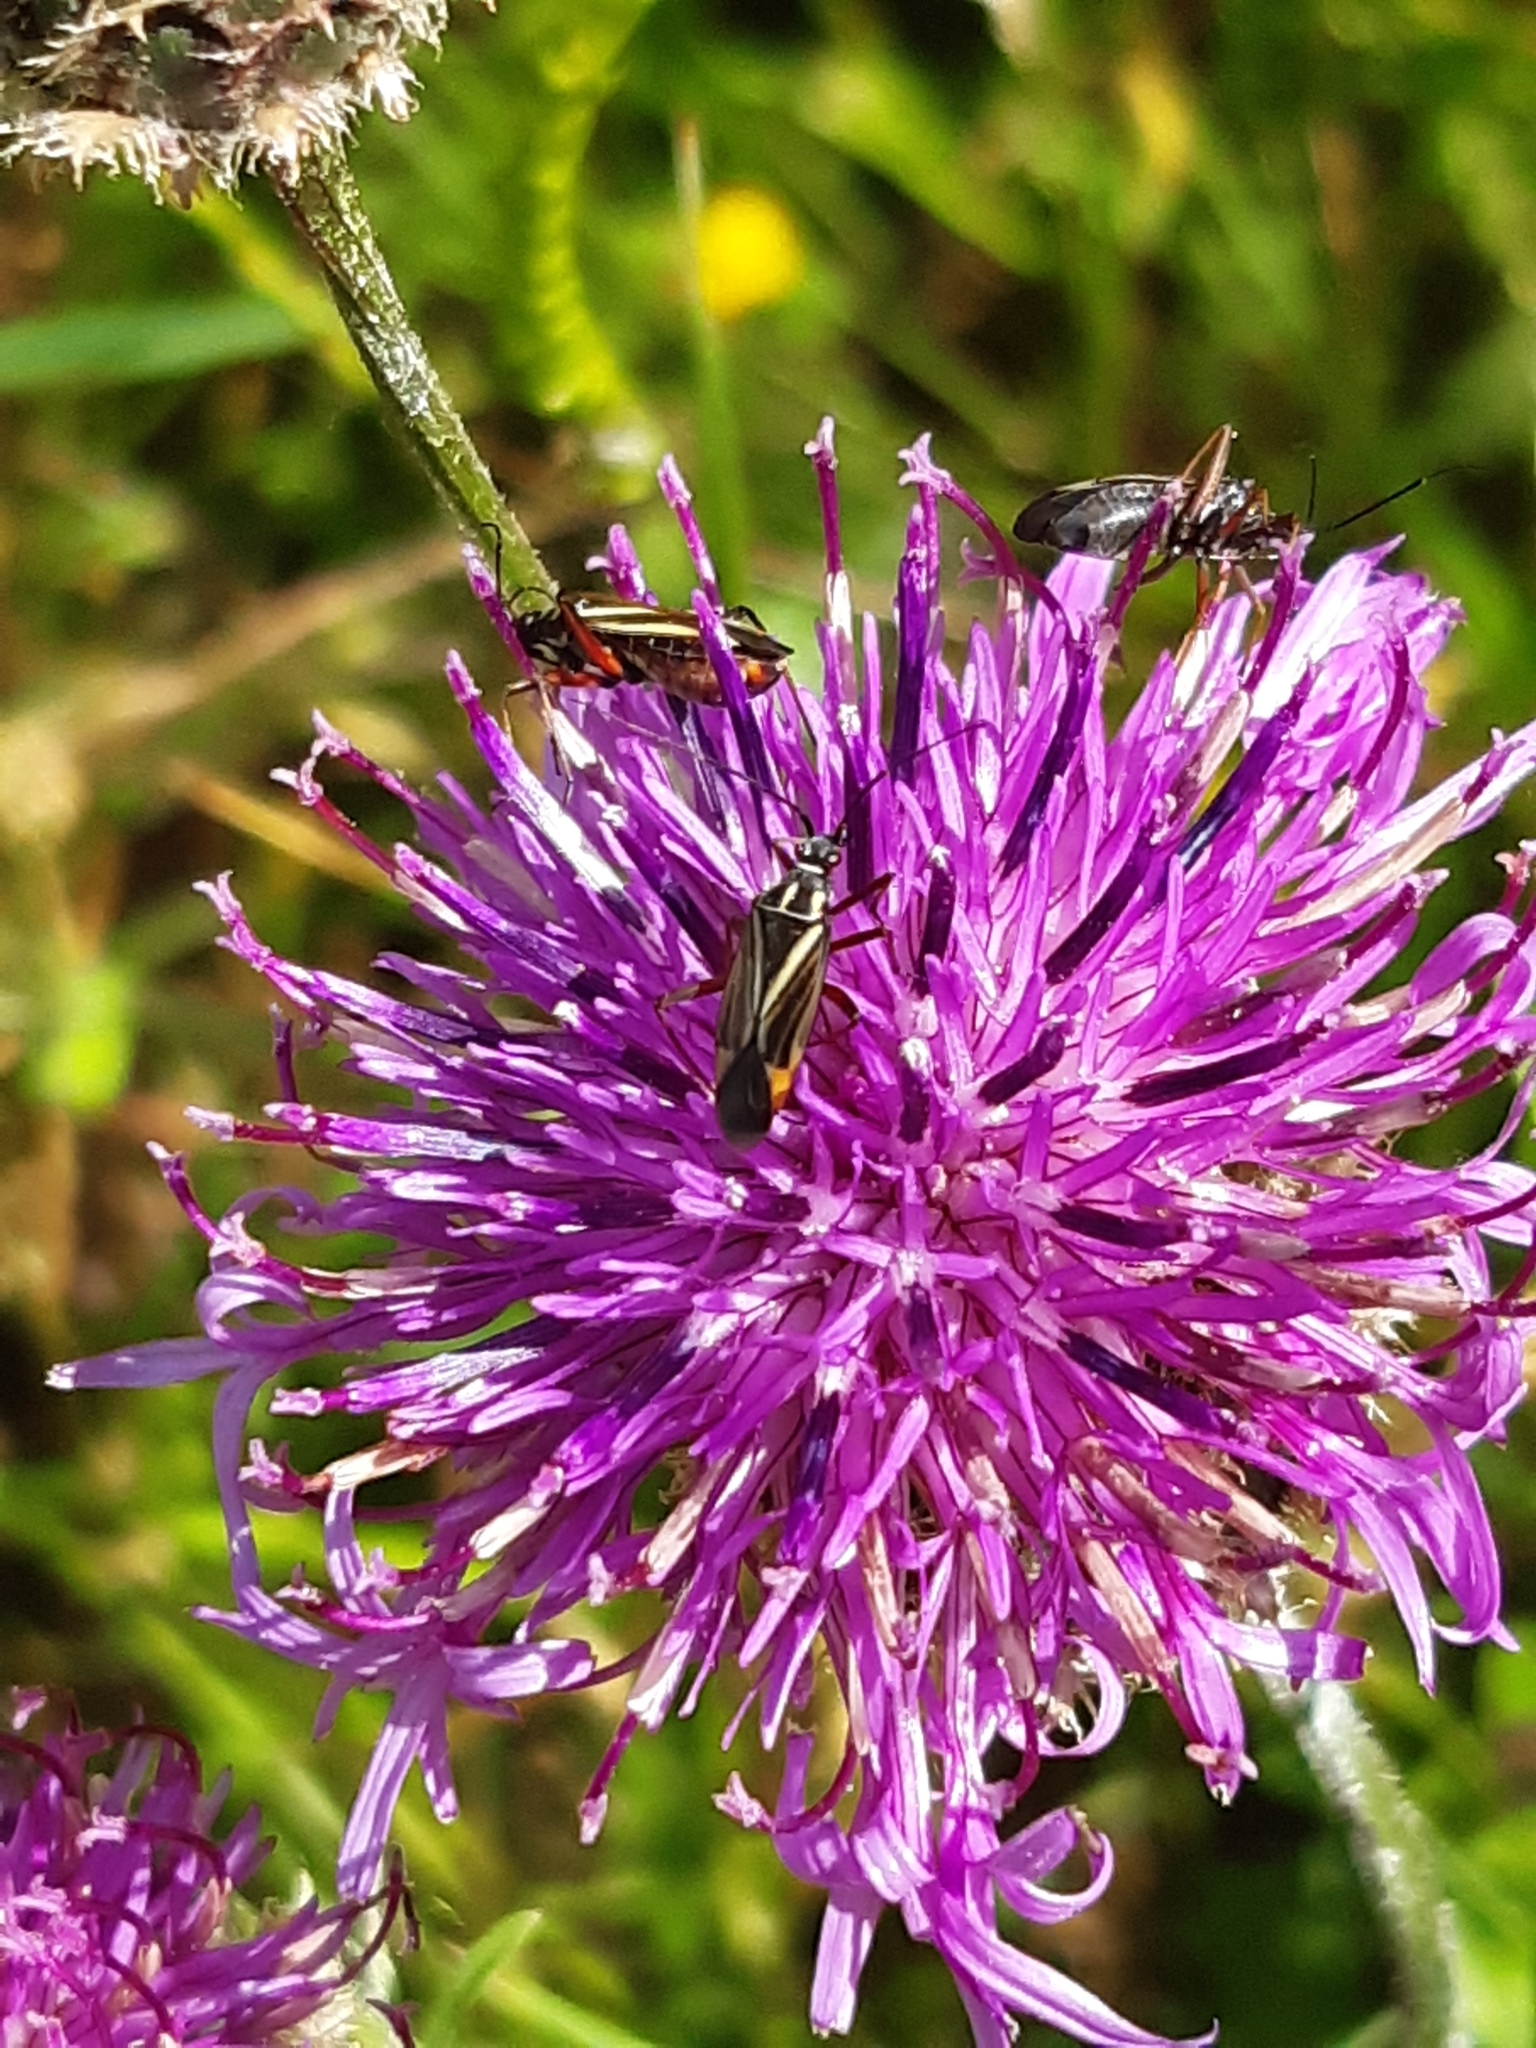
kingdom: Animalia
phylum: Arthropoda
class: Insecta
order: Hemiptera
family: Miridae
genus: Hadrodemus
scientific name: Hadrodemus m-flavum
